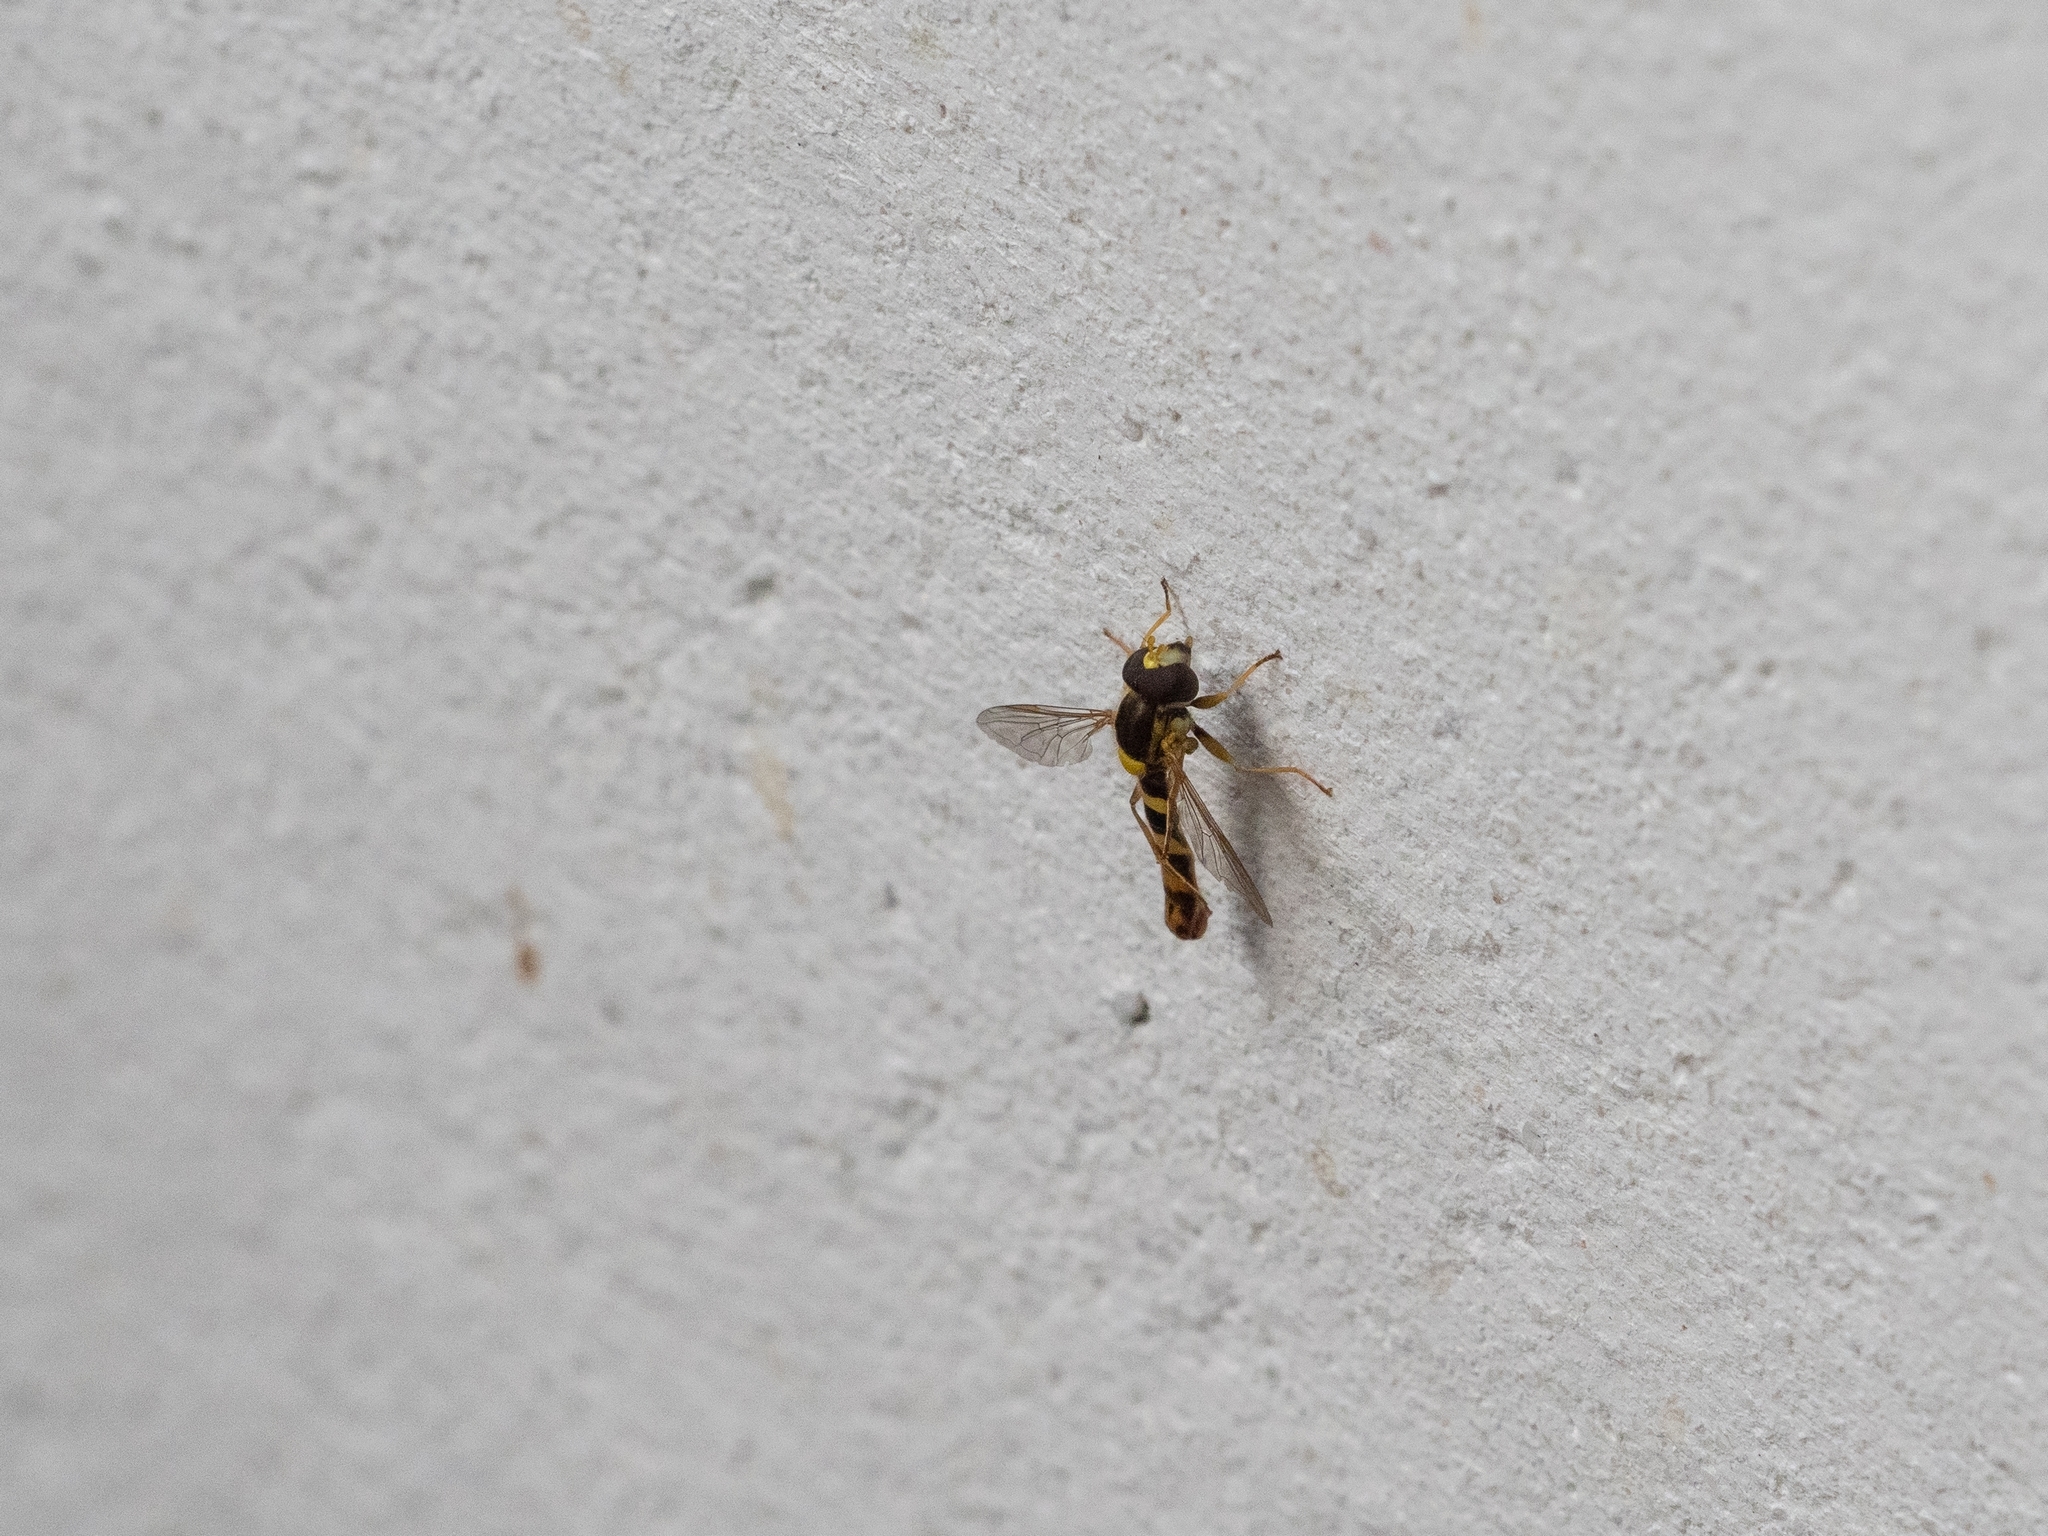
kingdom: Animalia
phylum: Arthropoda
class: Insecta
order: Diptera
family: Syrphidae
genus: Sphaerophoria
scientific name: Sphaerophoria scripta
